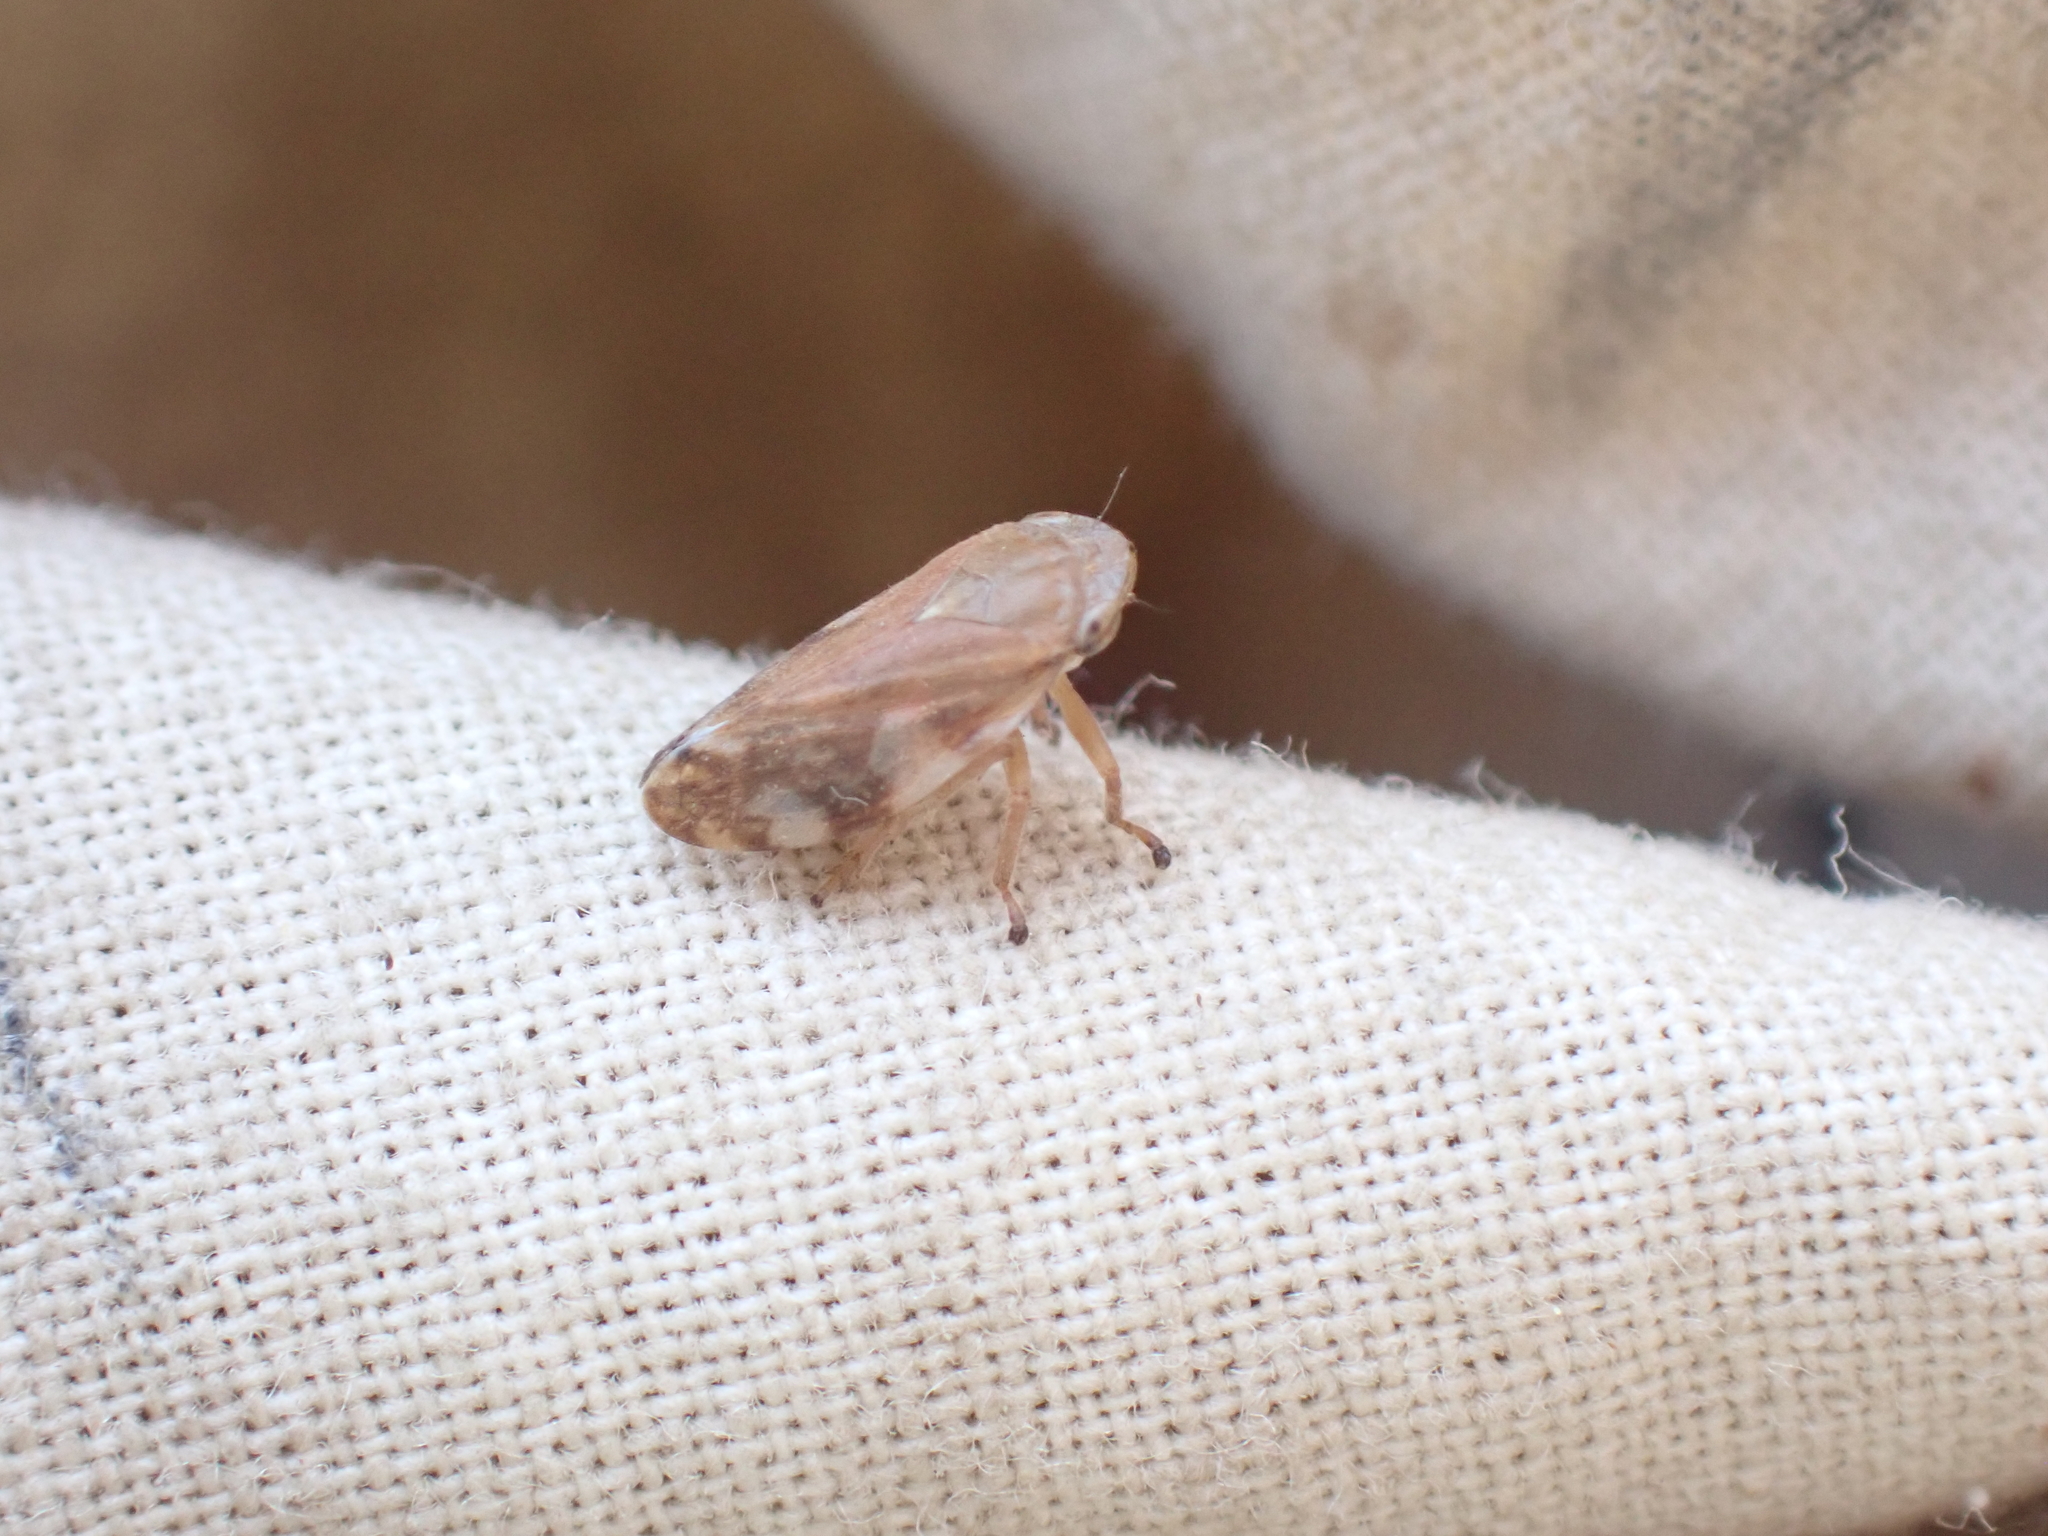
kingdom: Animalia
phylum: Arthropoda
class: Insecta
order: Hemiptera
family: Aphrophoridae
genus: Philaenus
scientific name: Philaenus spumarius
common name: Meadow spittlebug
